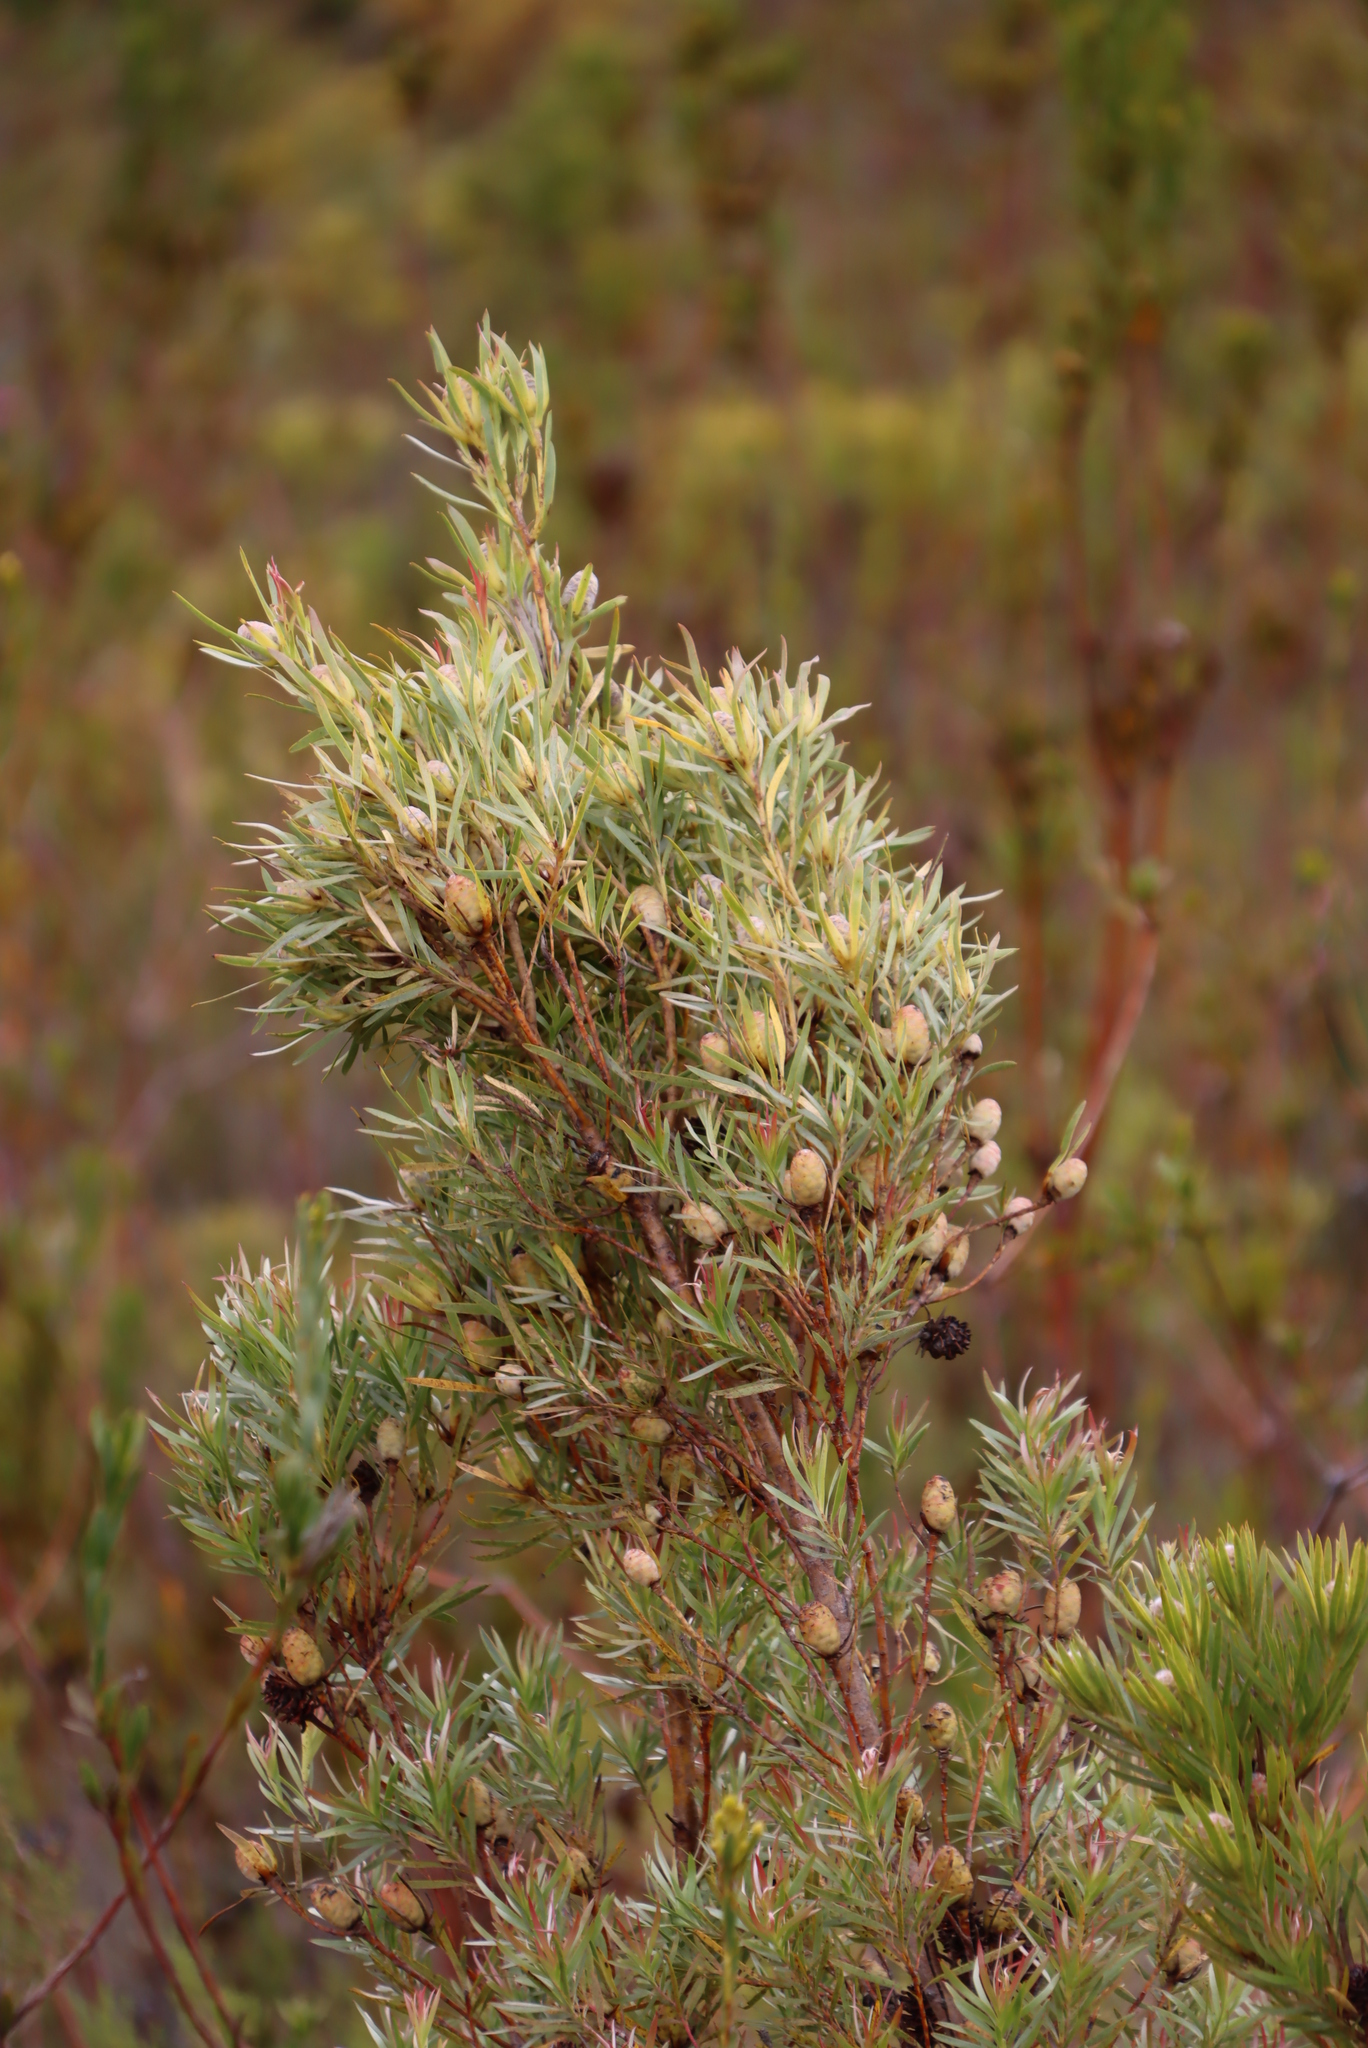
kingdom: Plantae
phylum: Tracheophyta
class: Magnoliopsida
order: Proteales
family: Proteaceae
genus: Leucadendron
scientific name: Leucadendron xanthoconus
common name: Sickle-leaf conebush
